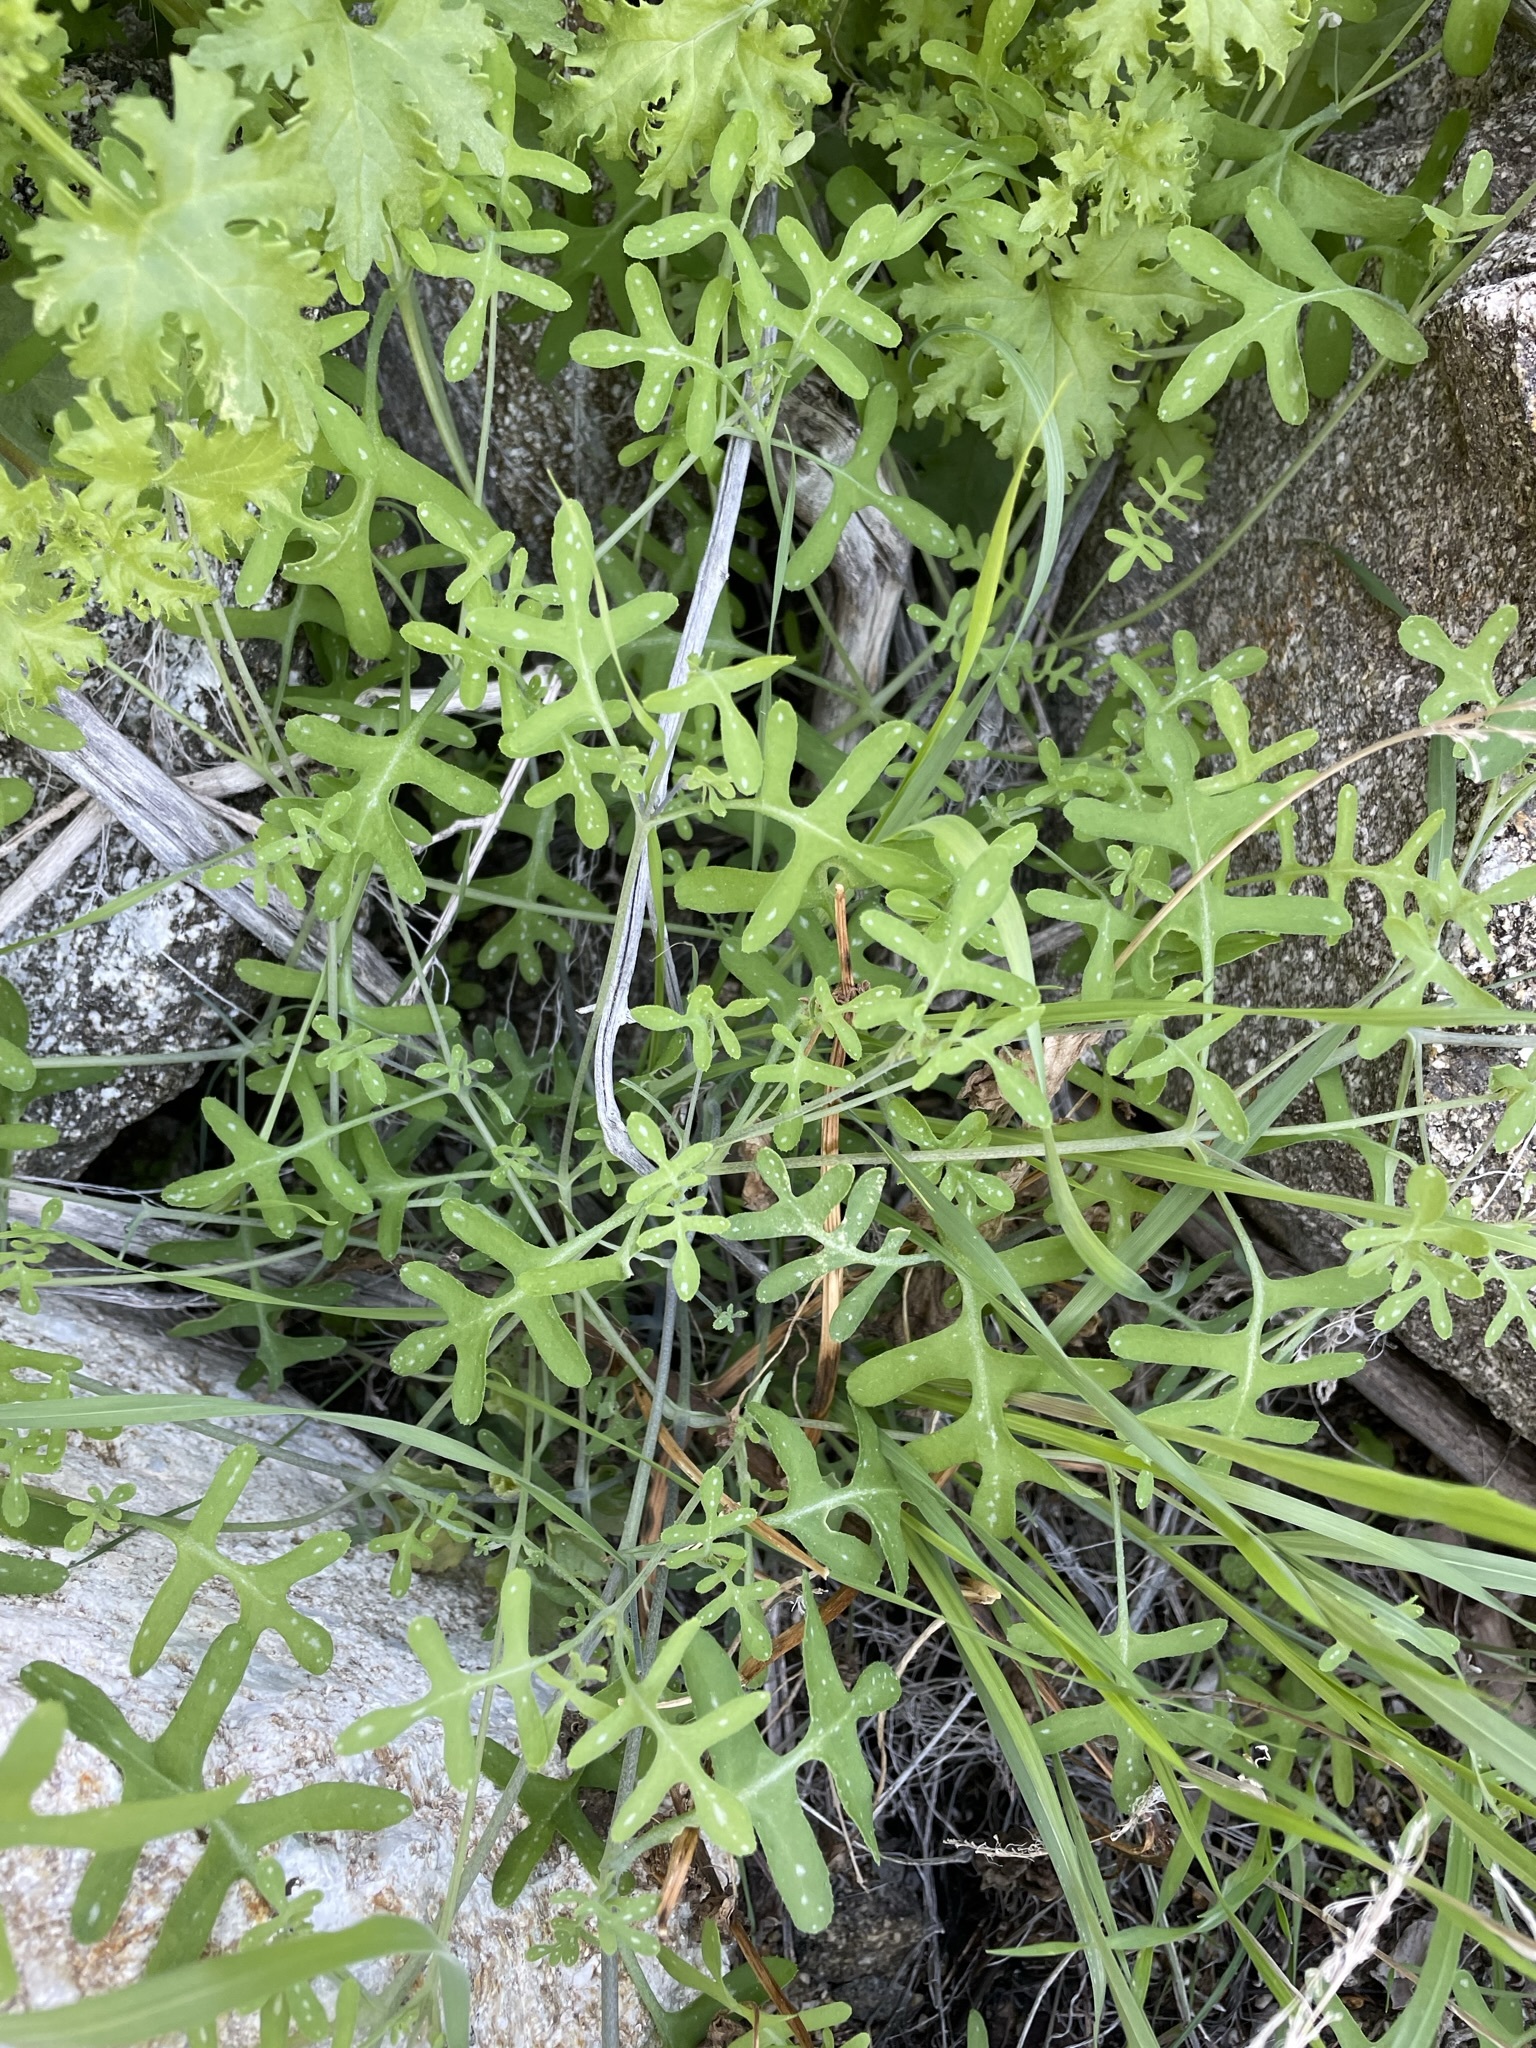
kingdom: Plantae
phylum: Tracheophyta
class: Magnoliopsida
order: Boraginales
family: Hydrophyllaceae
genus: Pholistoma
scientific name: Pholistoma membranaceum
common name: White fiesta-flower
